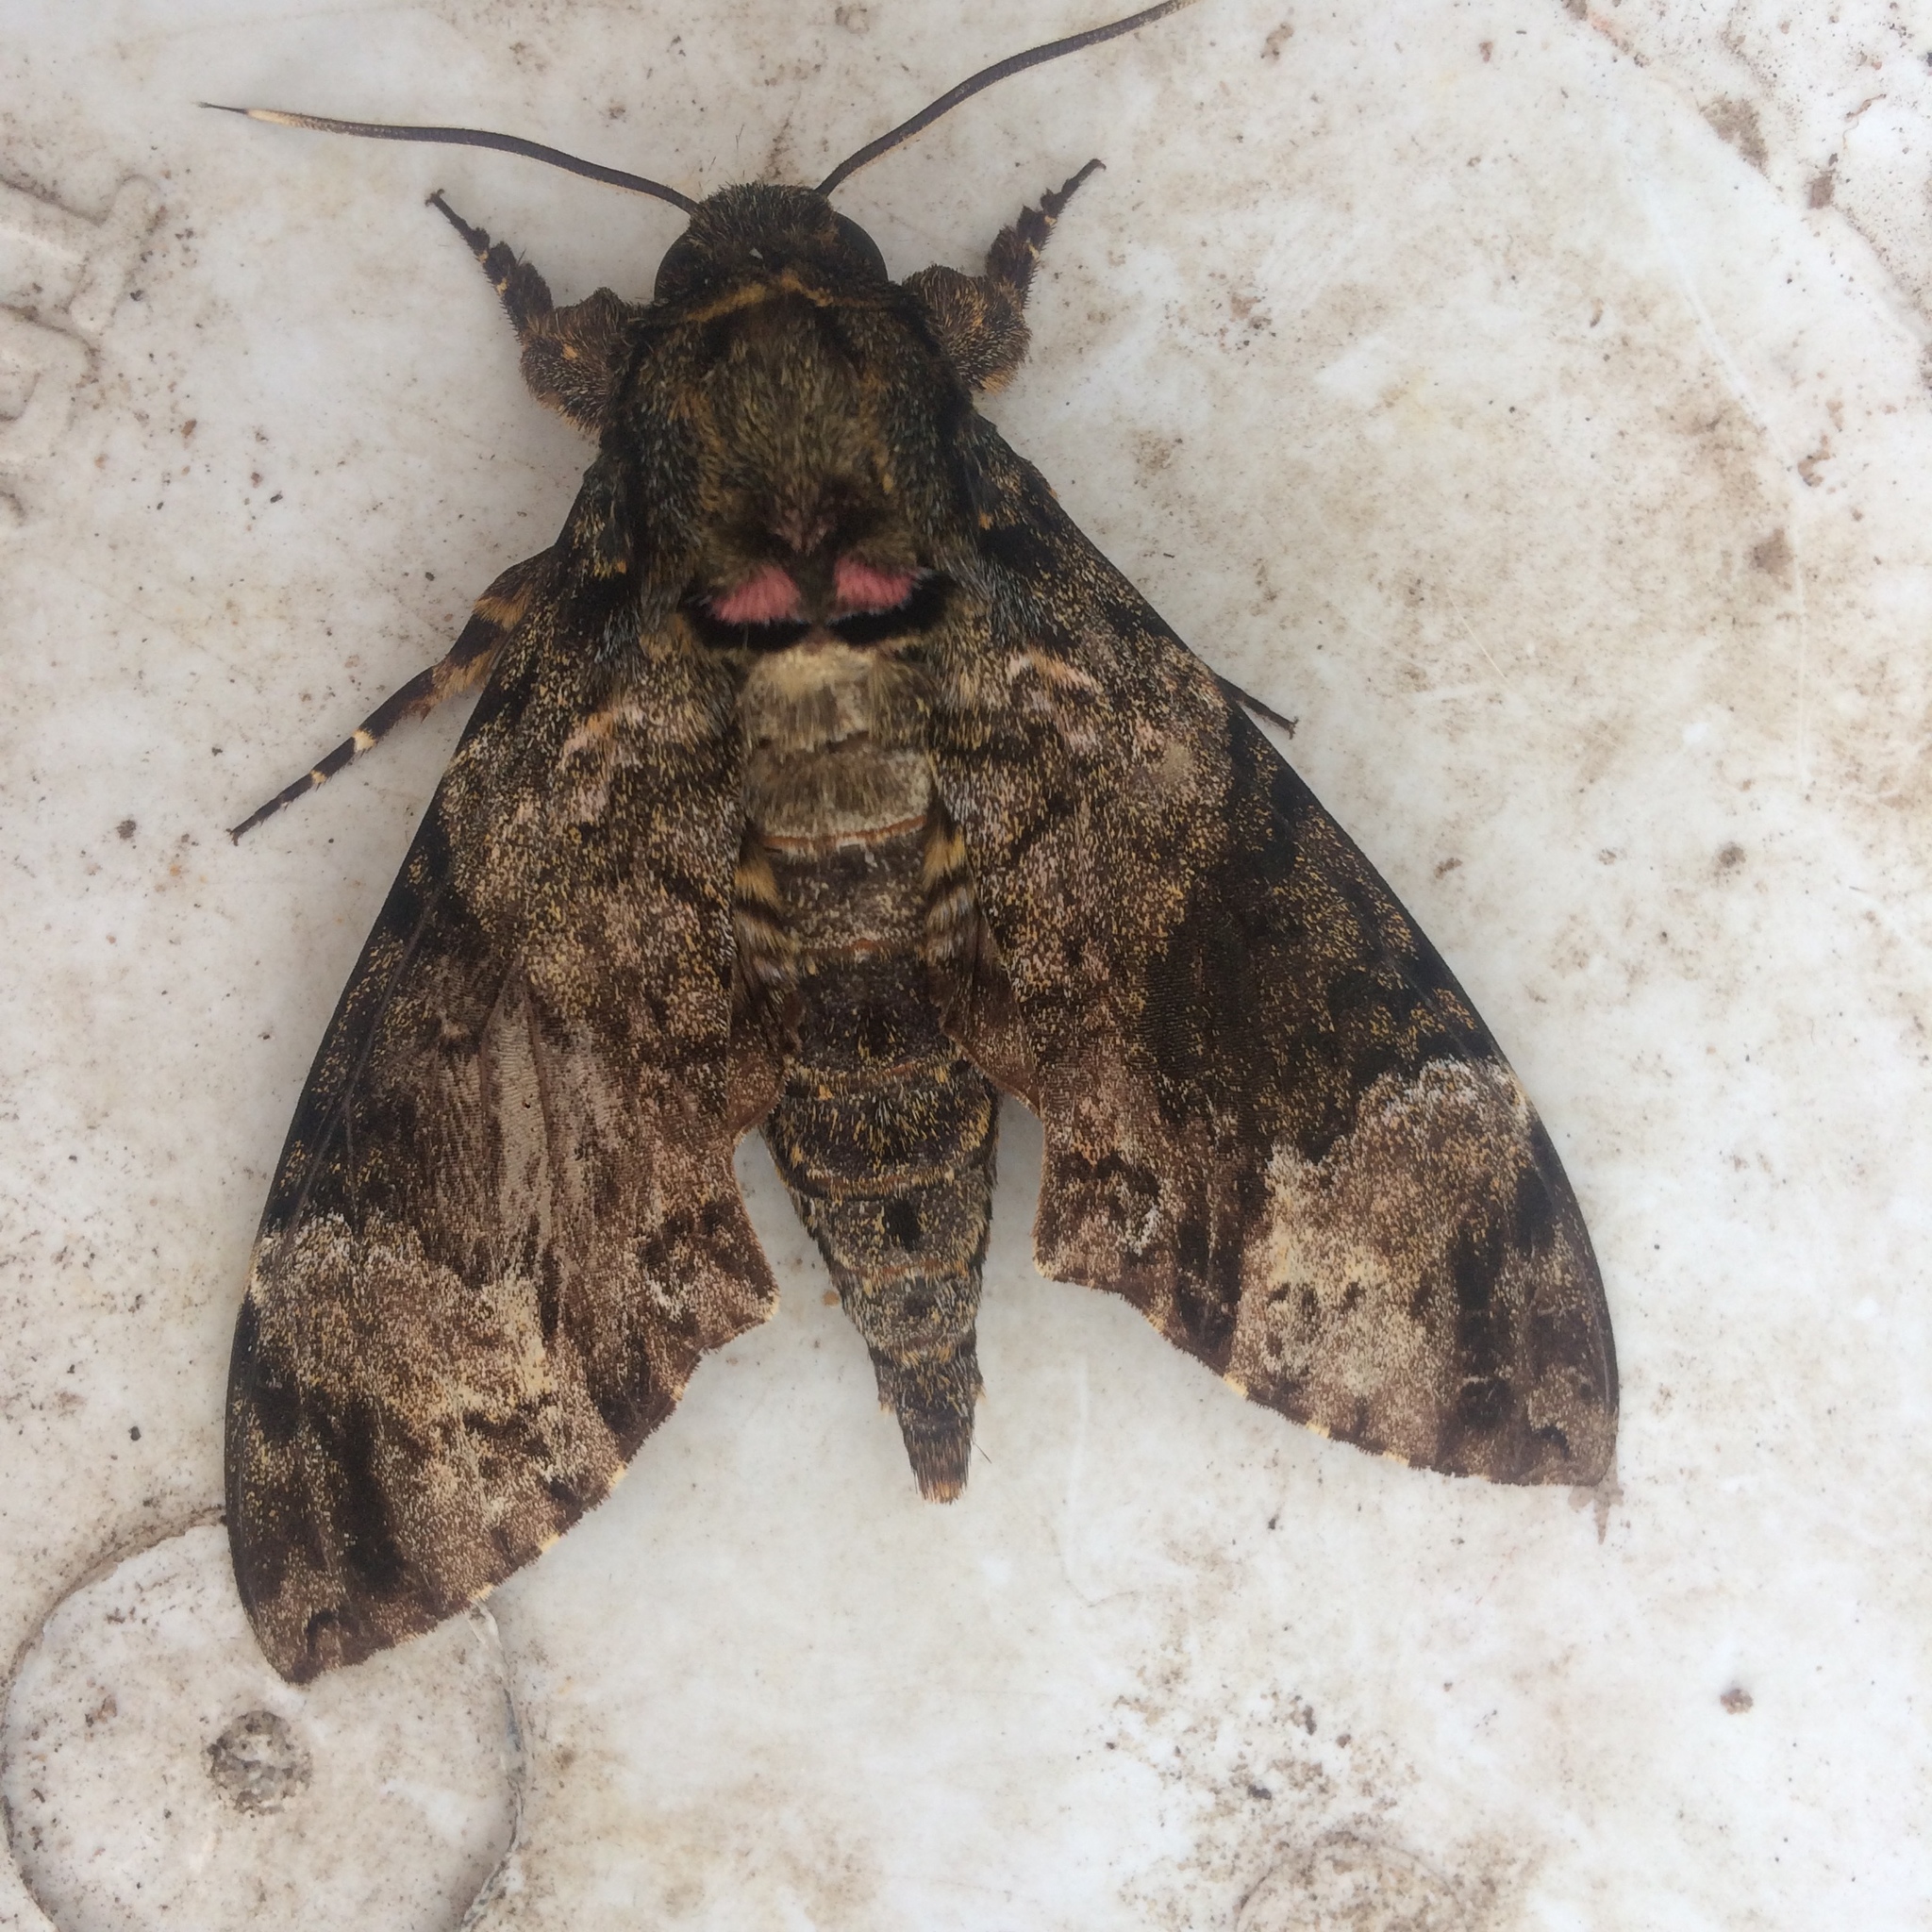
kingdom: Animalia
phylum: Arthropoda
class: Insecta
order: Lepidoptera
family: Sphingidae
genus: Coelonia
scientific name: Coelonia fulvinotata
